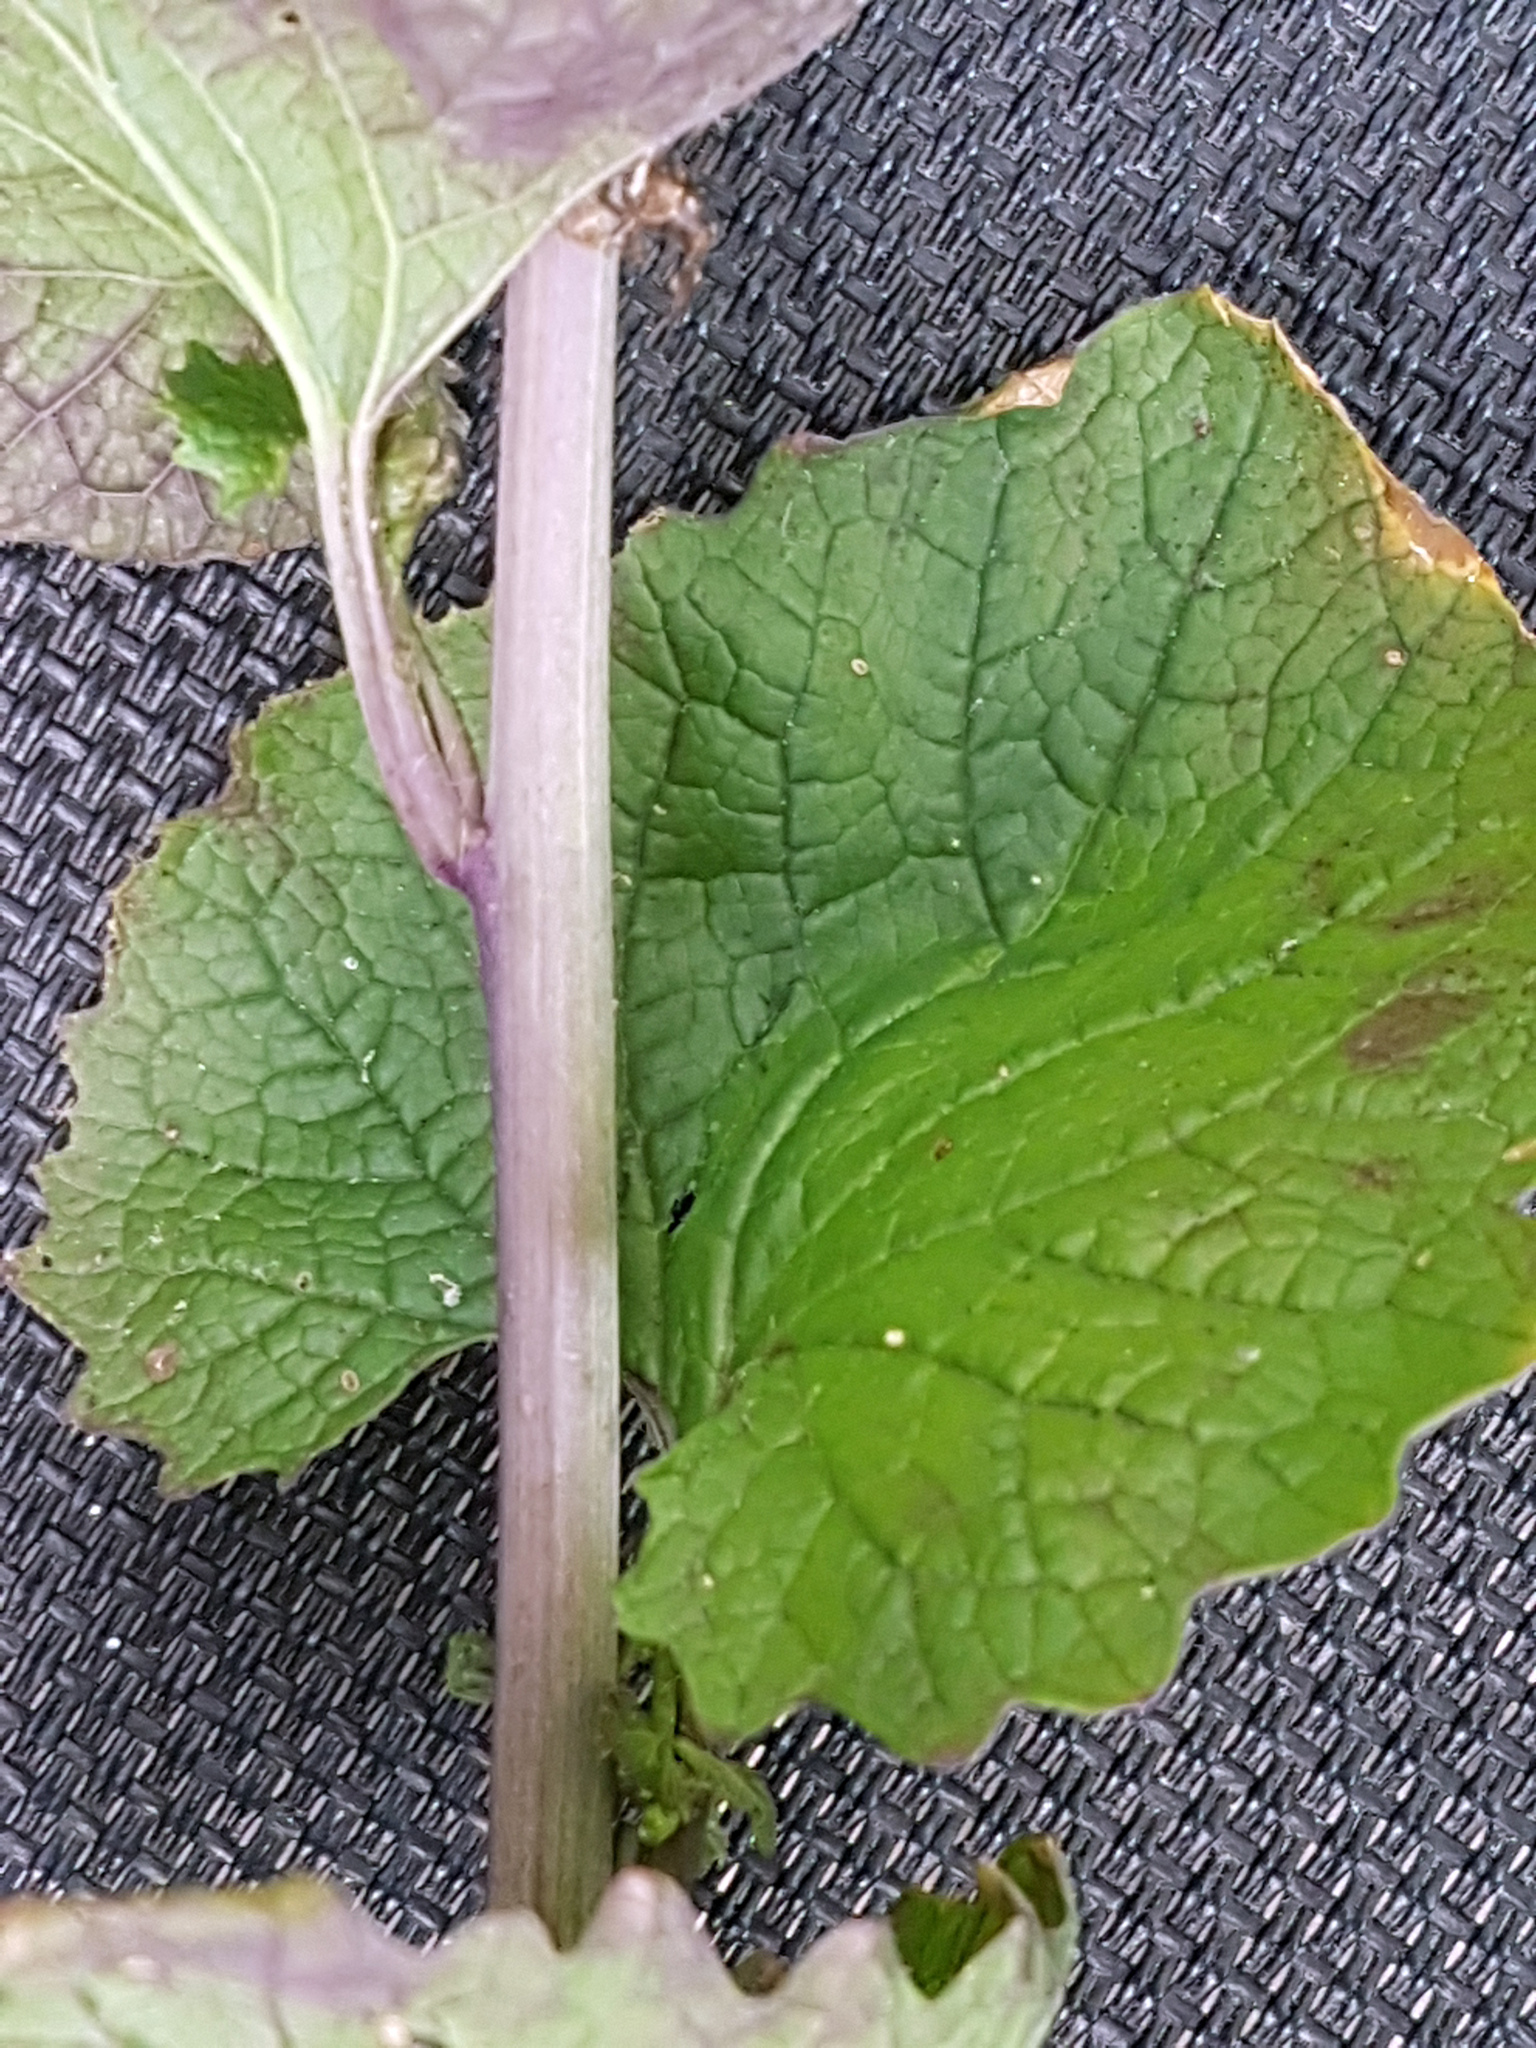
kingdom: Plantae
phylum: Tracheophyta
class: Magnoliopsida
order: Brassicales
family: Brassicaceae
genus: Alliaria
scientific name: Alliaria petiolata
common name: Garlic mustard
